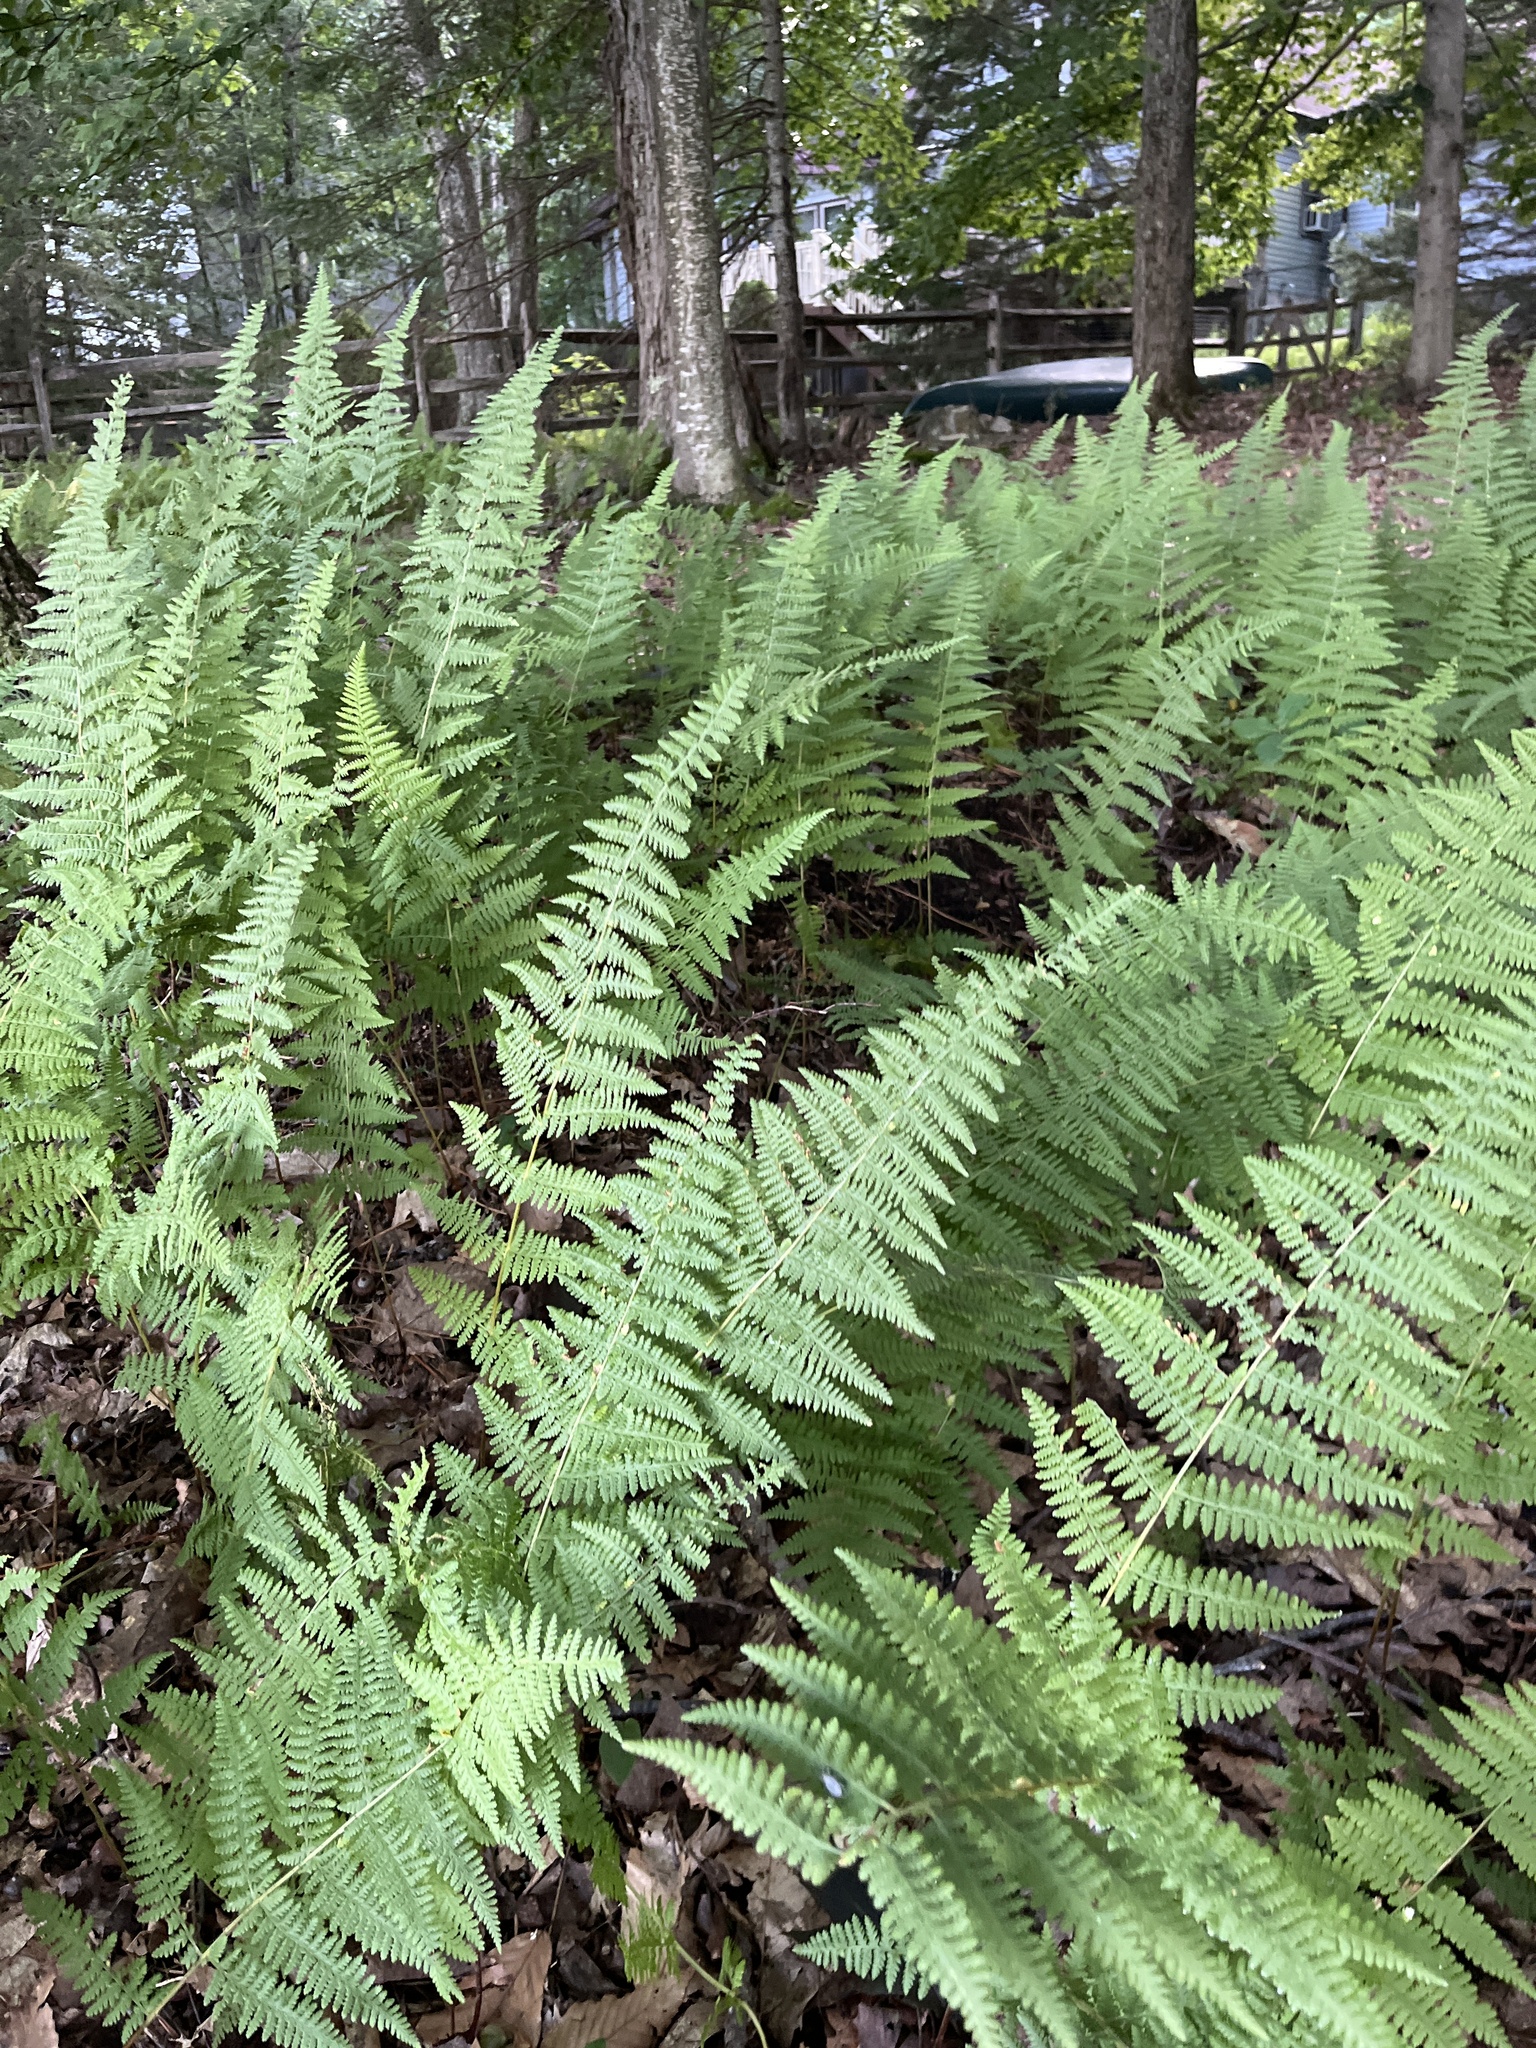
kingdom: Plantae
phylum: Tracheophyta
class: Polypodiopsida
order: Polypodiales
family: Dennstaedtiaceae
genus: Sitobolium
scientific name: Sitobolium punctilobum
